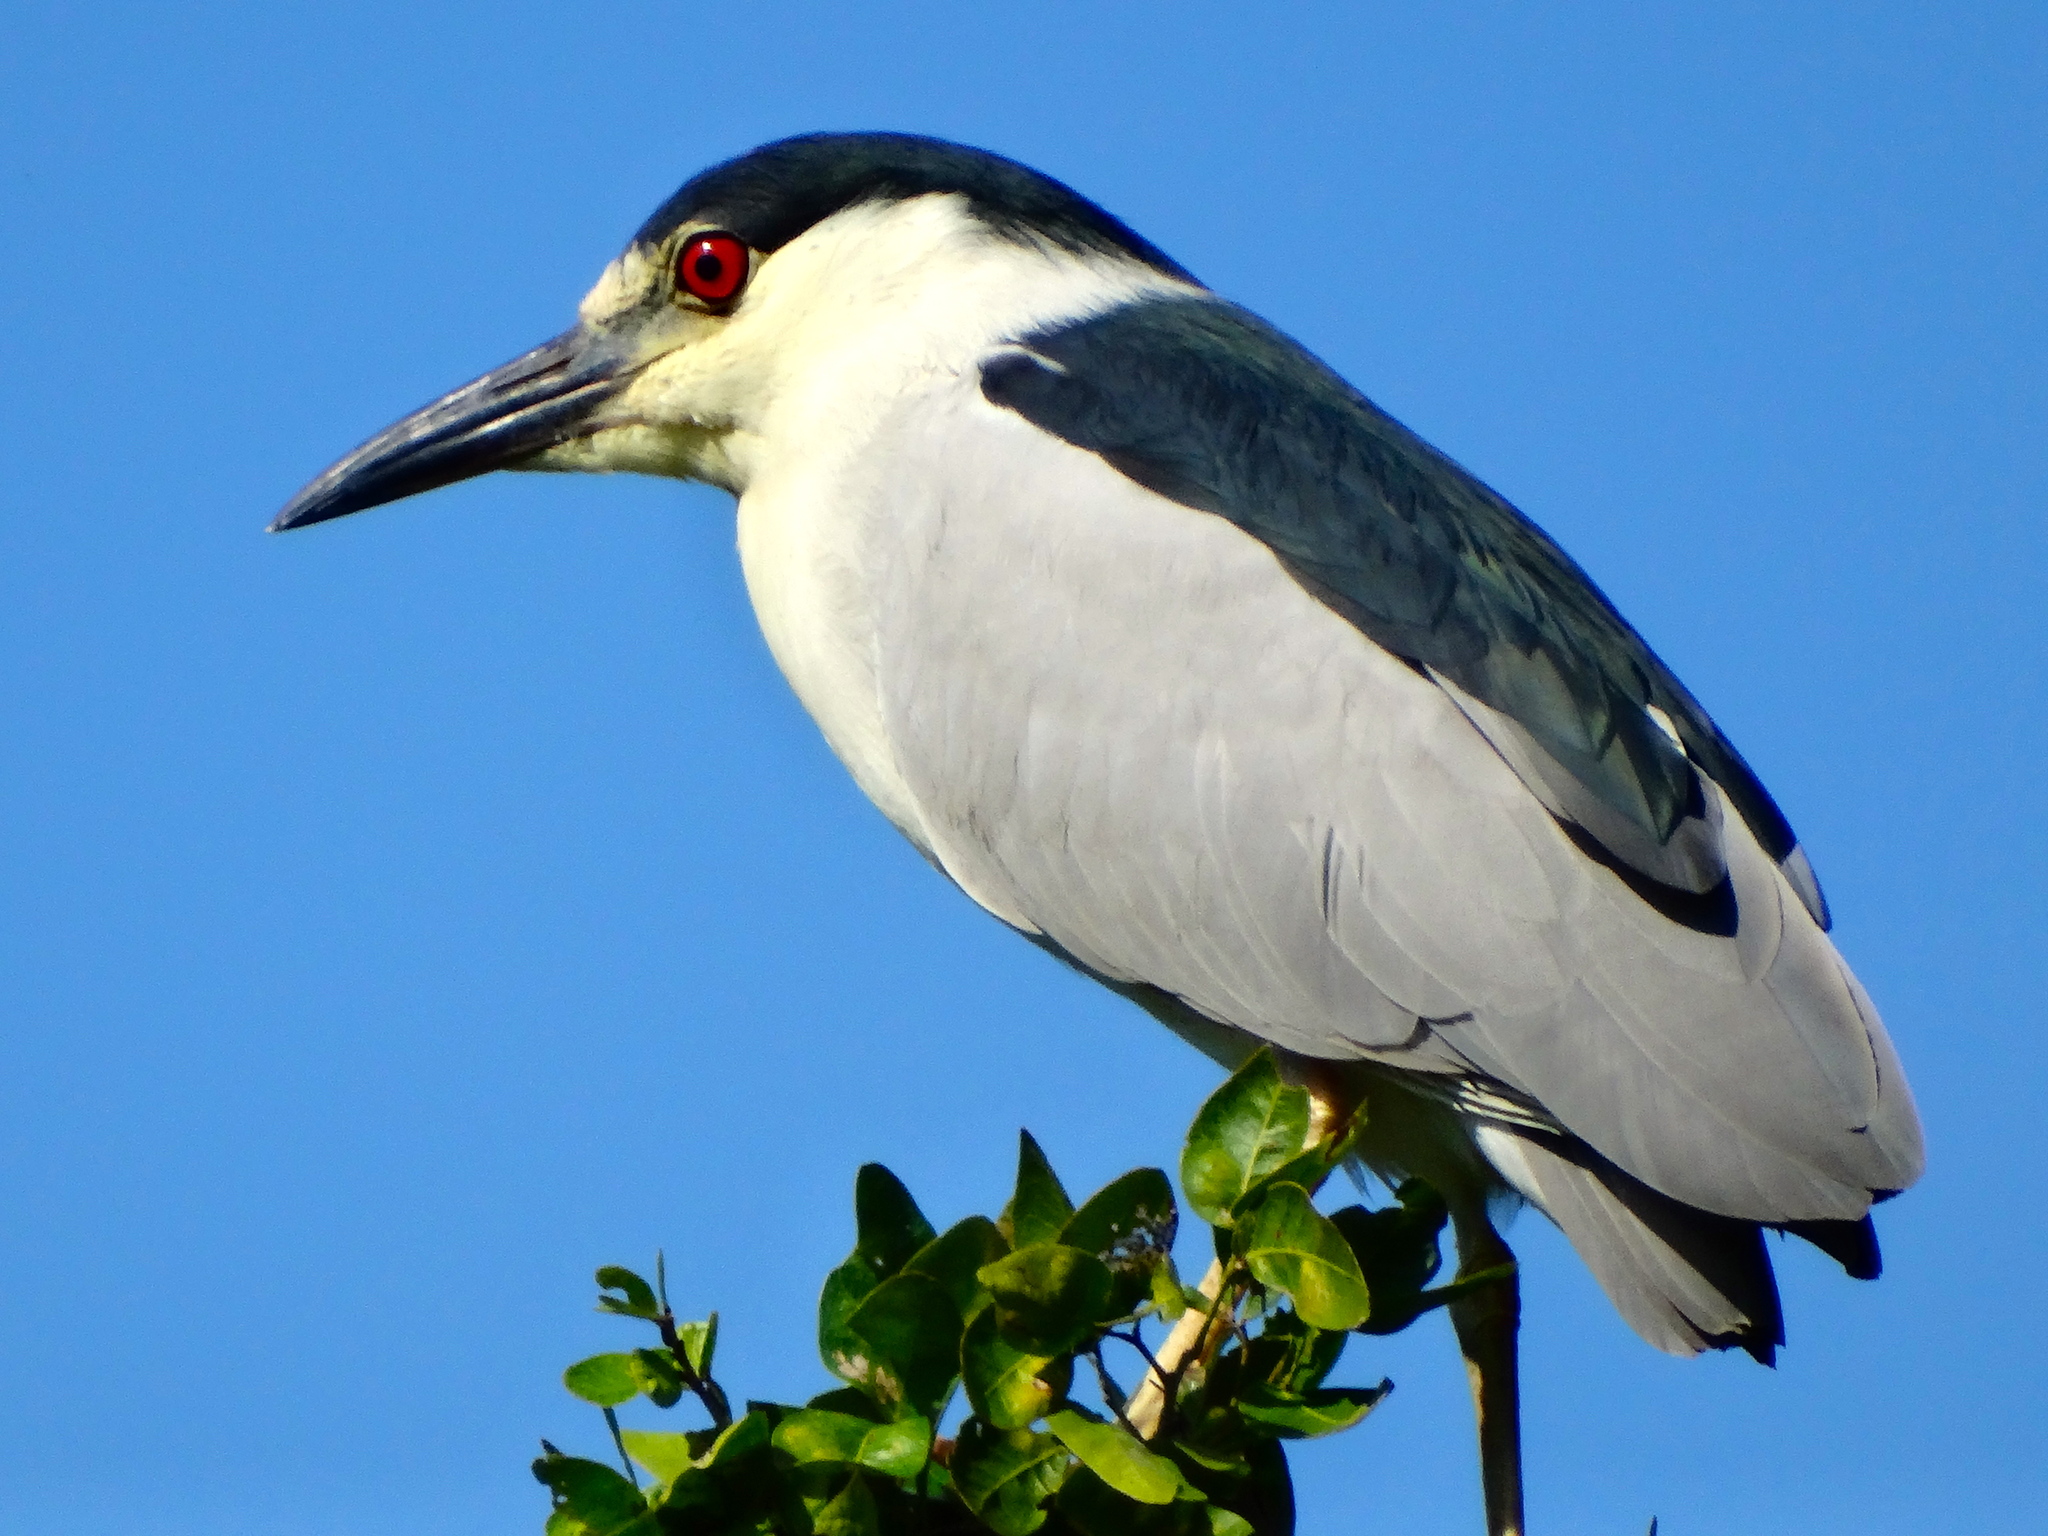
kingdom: Animalia
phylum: Chordata
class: Aves
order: Pelecaniformes
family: Ardeidae
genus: Nycticorax
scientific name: Nycticorax nycticorax
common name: Black-crowned night heron
